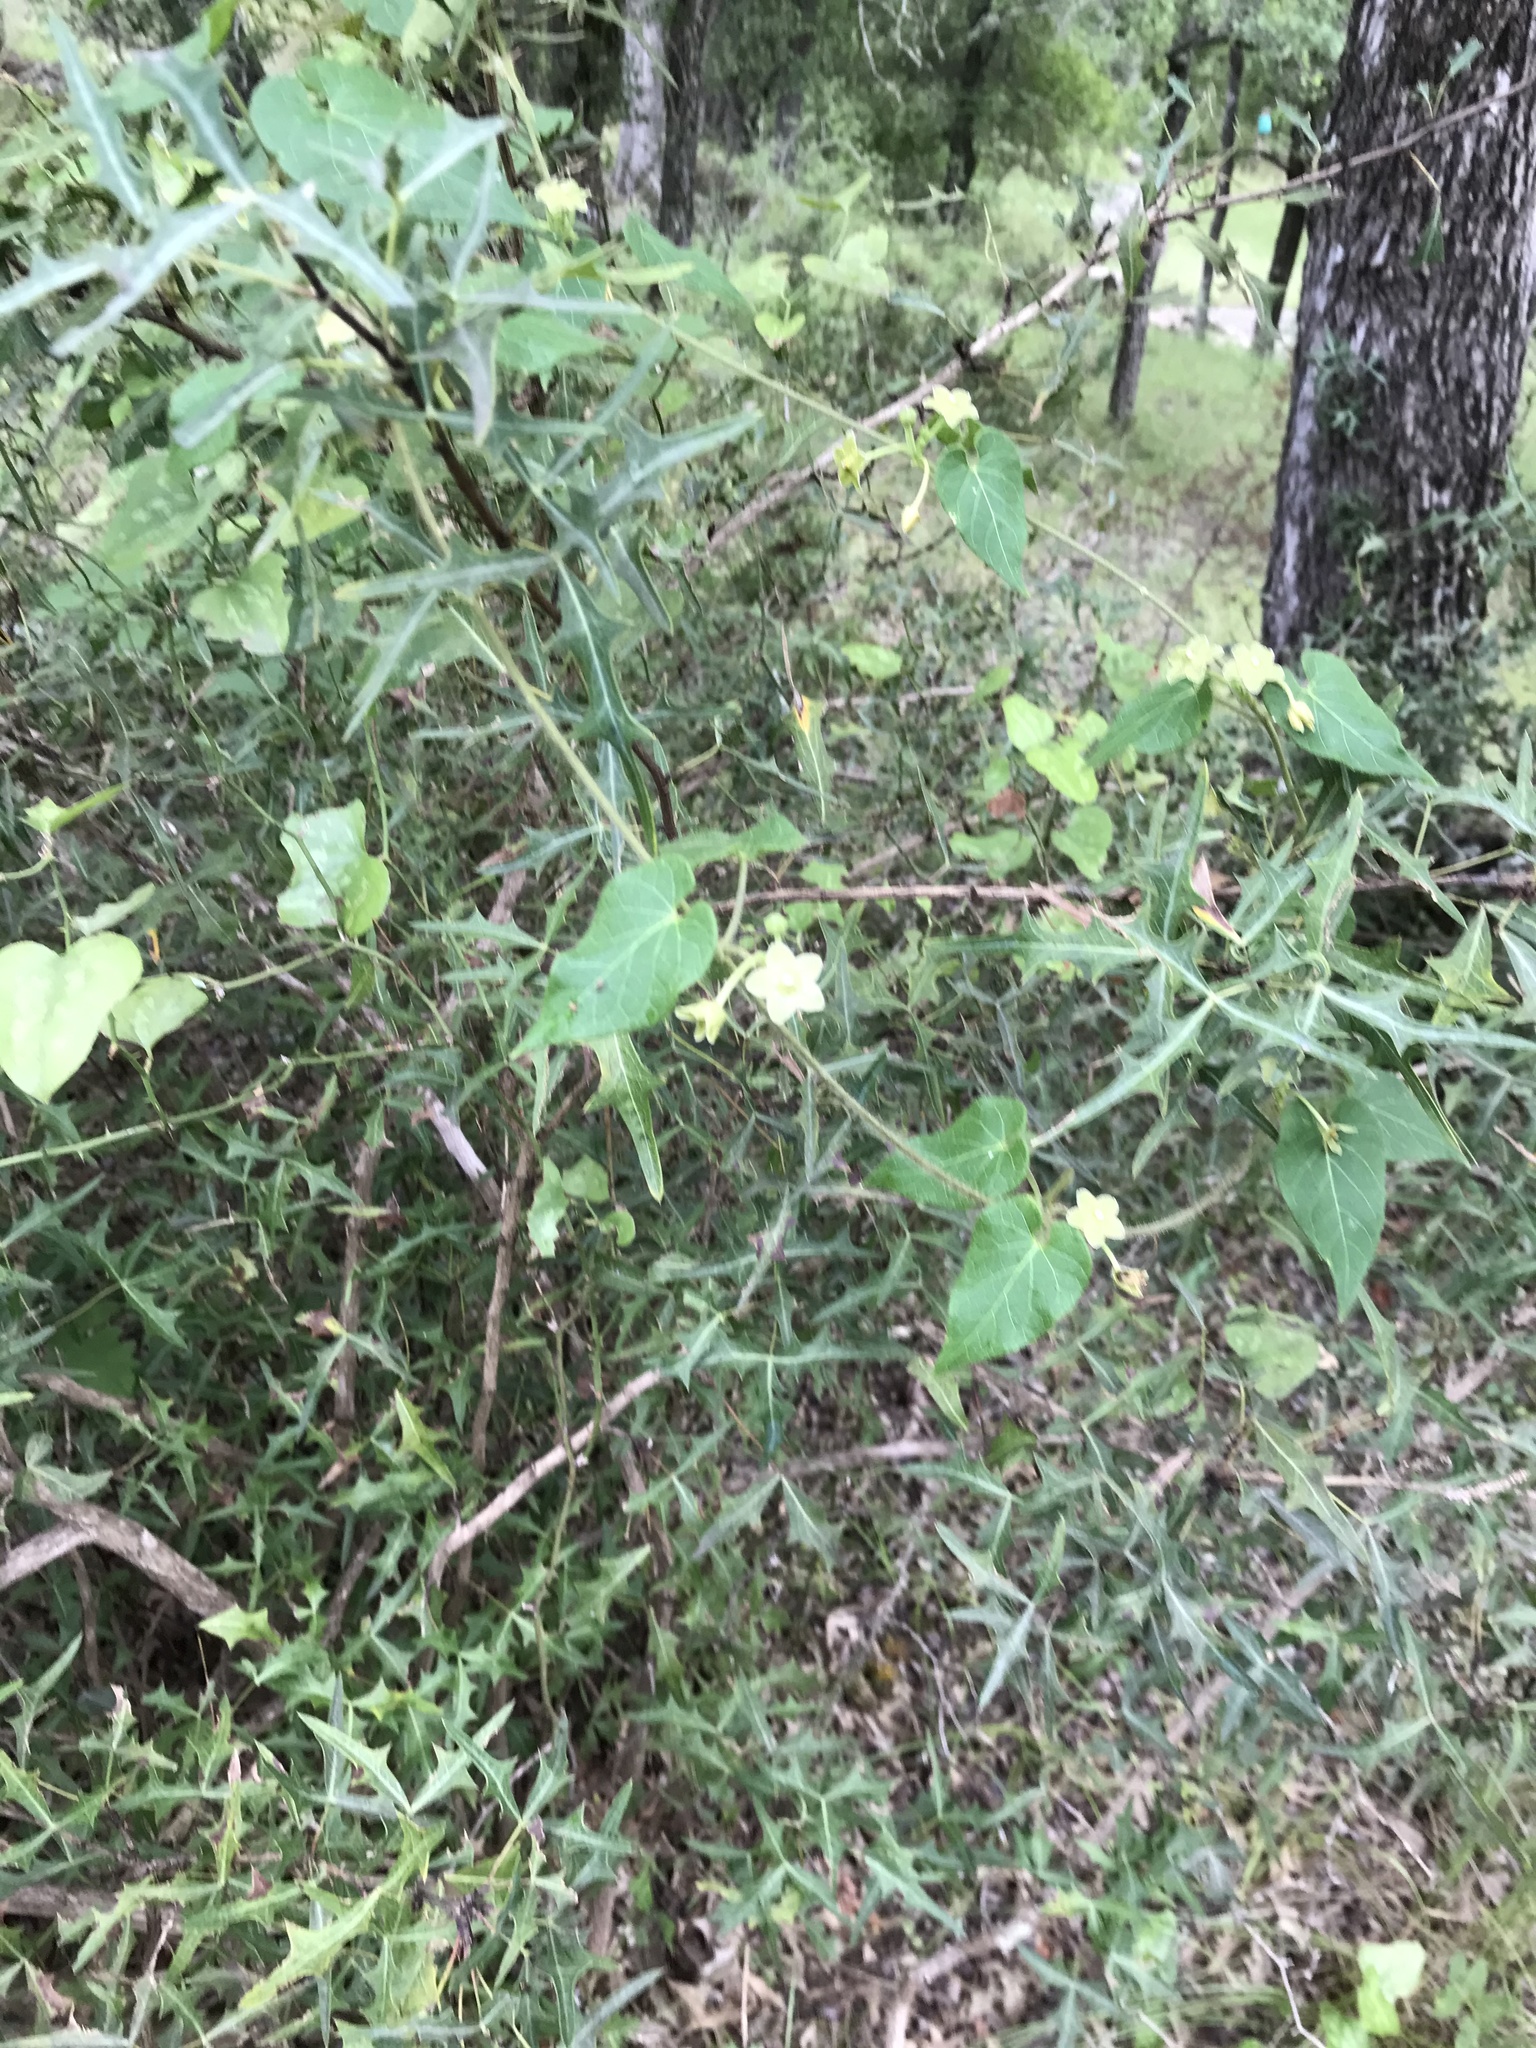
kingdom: Plantae
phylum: Tracheophyta
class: Magnoliopsida
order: Gentianales
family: Apocynaceae
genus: Dictyanthus
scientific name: Dictyanthus reticulatus
